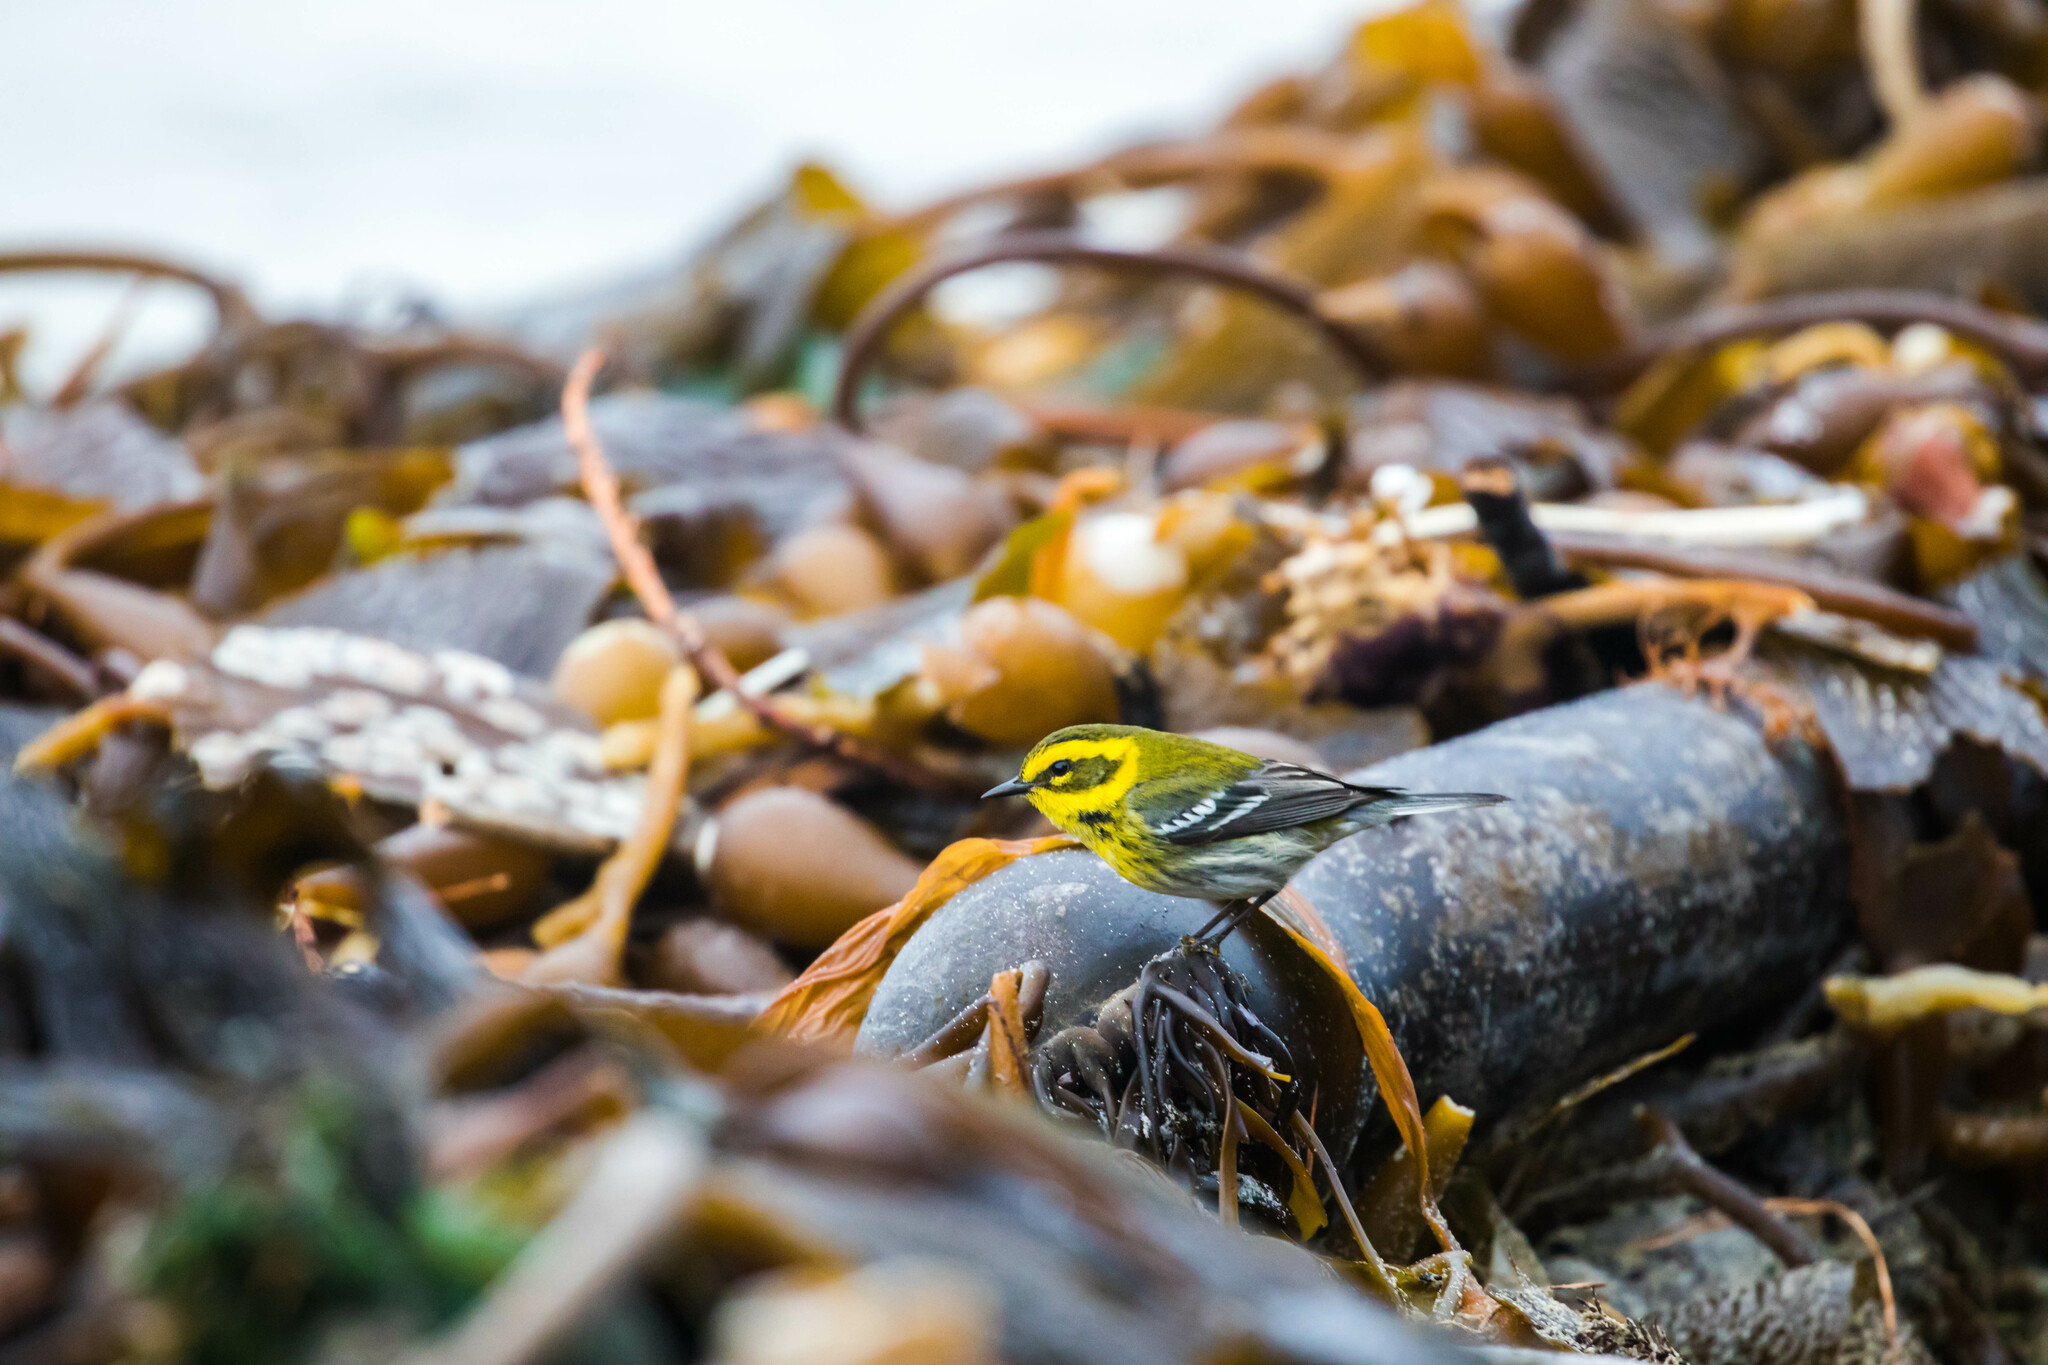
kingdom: Animalia
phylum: Chordata
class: Aves
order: Passeriformes
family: Parulidae
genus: Setophaga
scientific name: Setophaga townsendi
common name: Townsend's warbler
